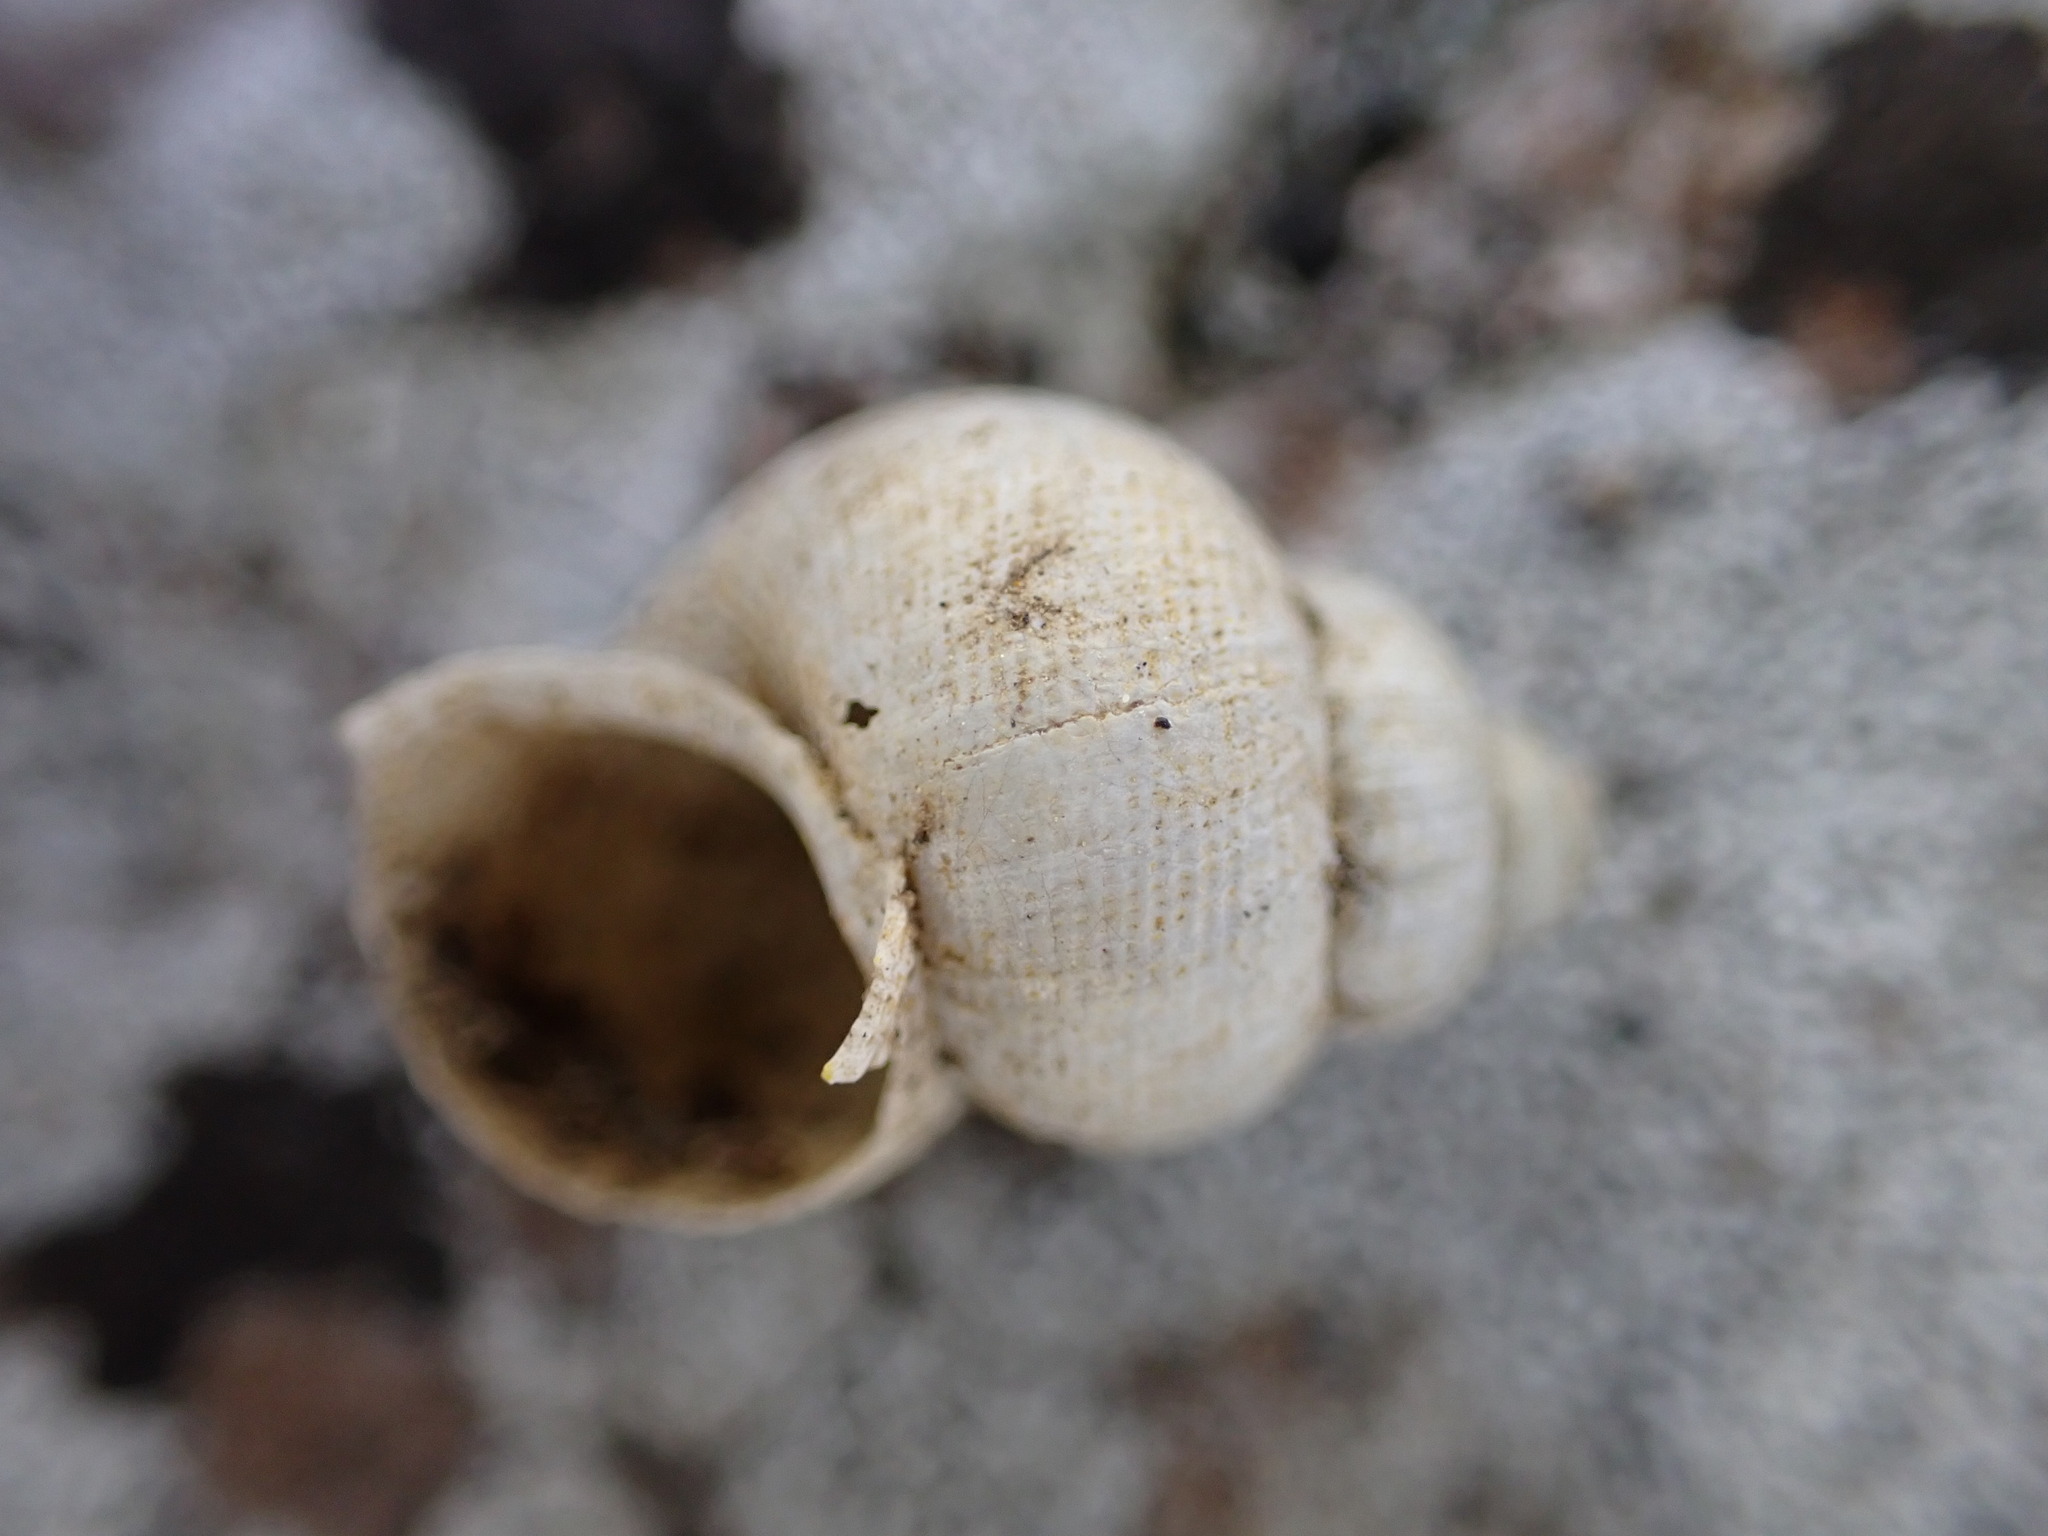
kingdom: Animalia
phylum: Mollusca
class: Gastropoda
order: Littorinimorpha
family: Pomatiidae
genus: Pomatias
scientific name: Pomatias elegans
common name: Red-mouthed snail
